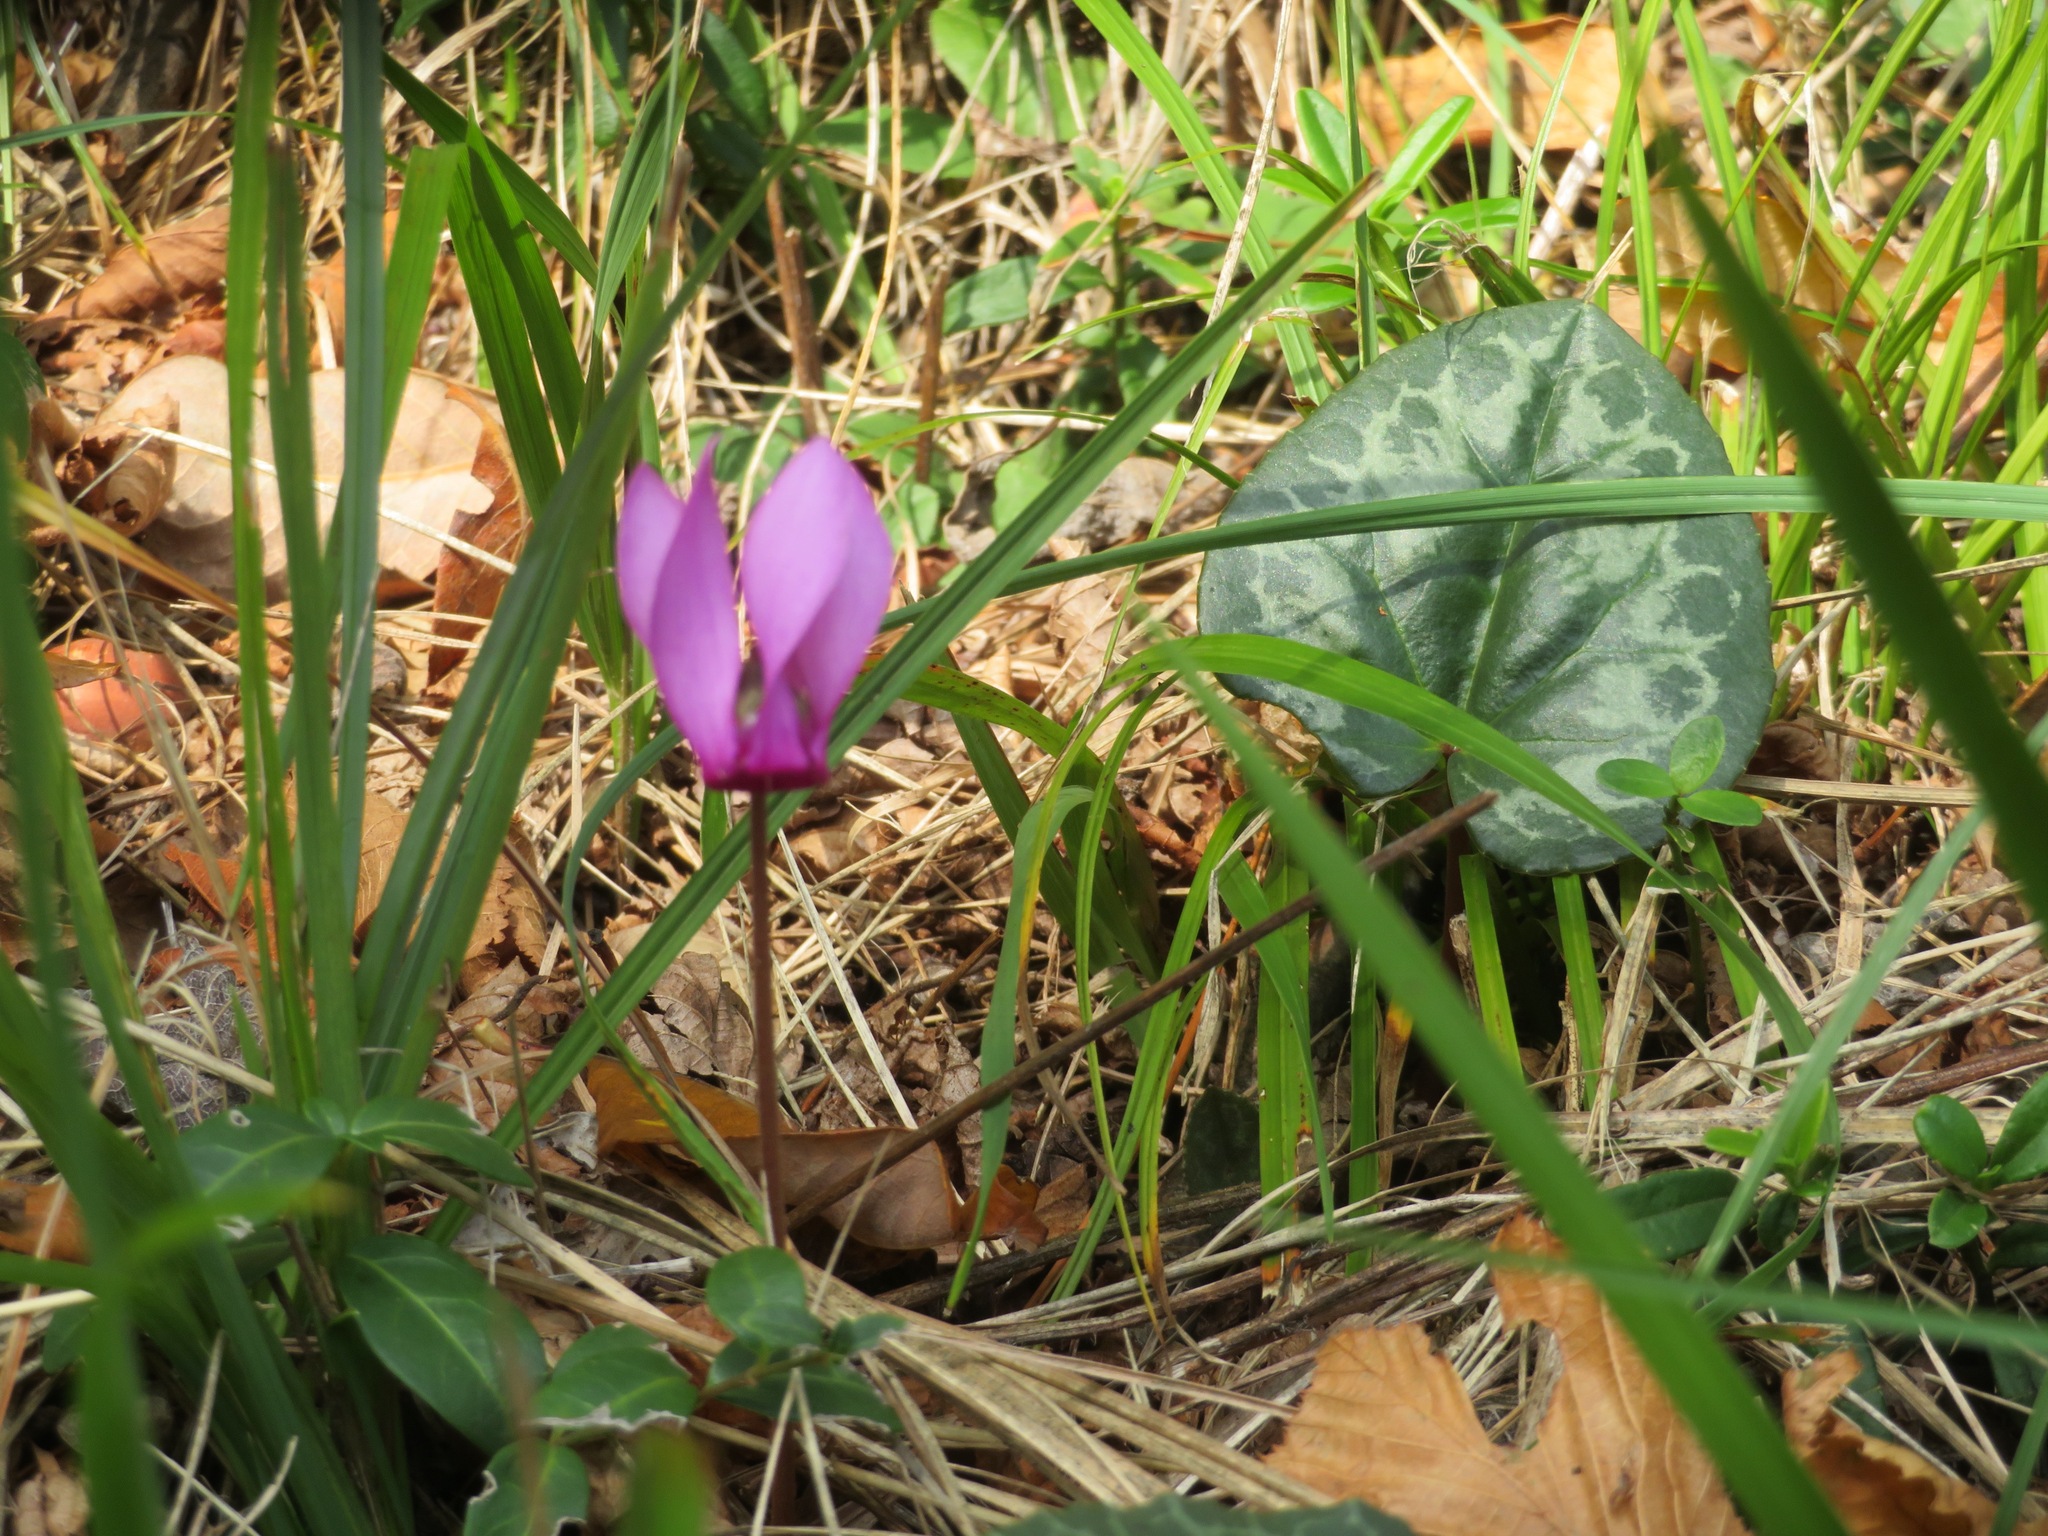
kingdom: Plantae
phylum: Tracheophyta
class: Magnoliopsida
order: Ericales
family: Primulaceae
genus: Cyclamen
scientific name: Cyclamen purpurascens
